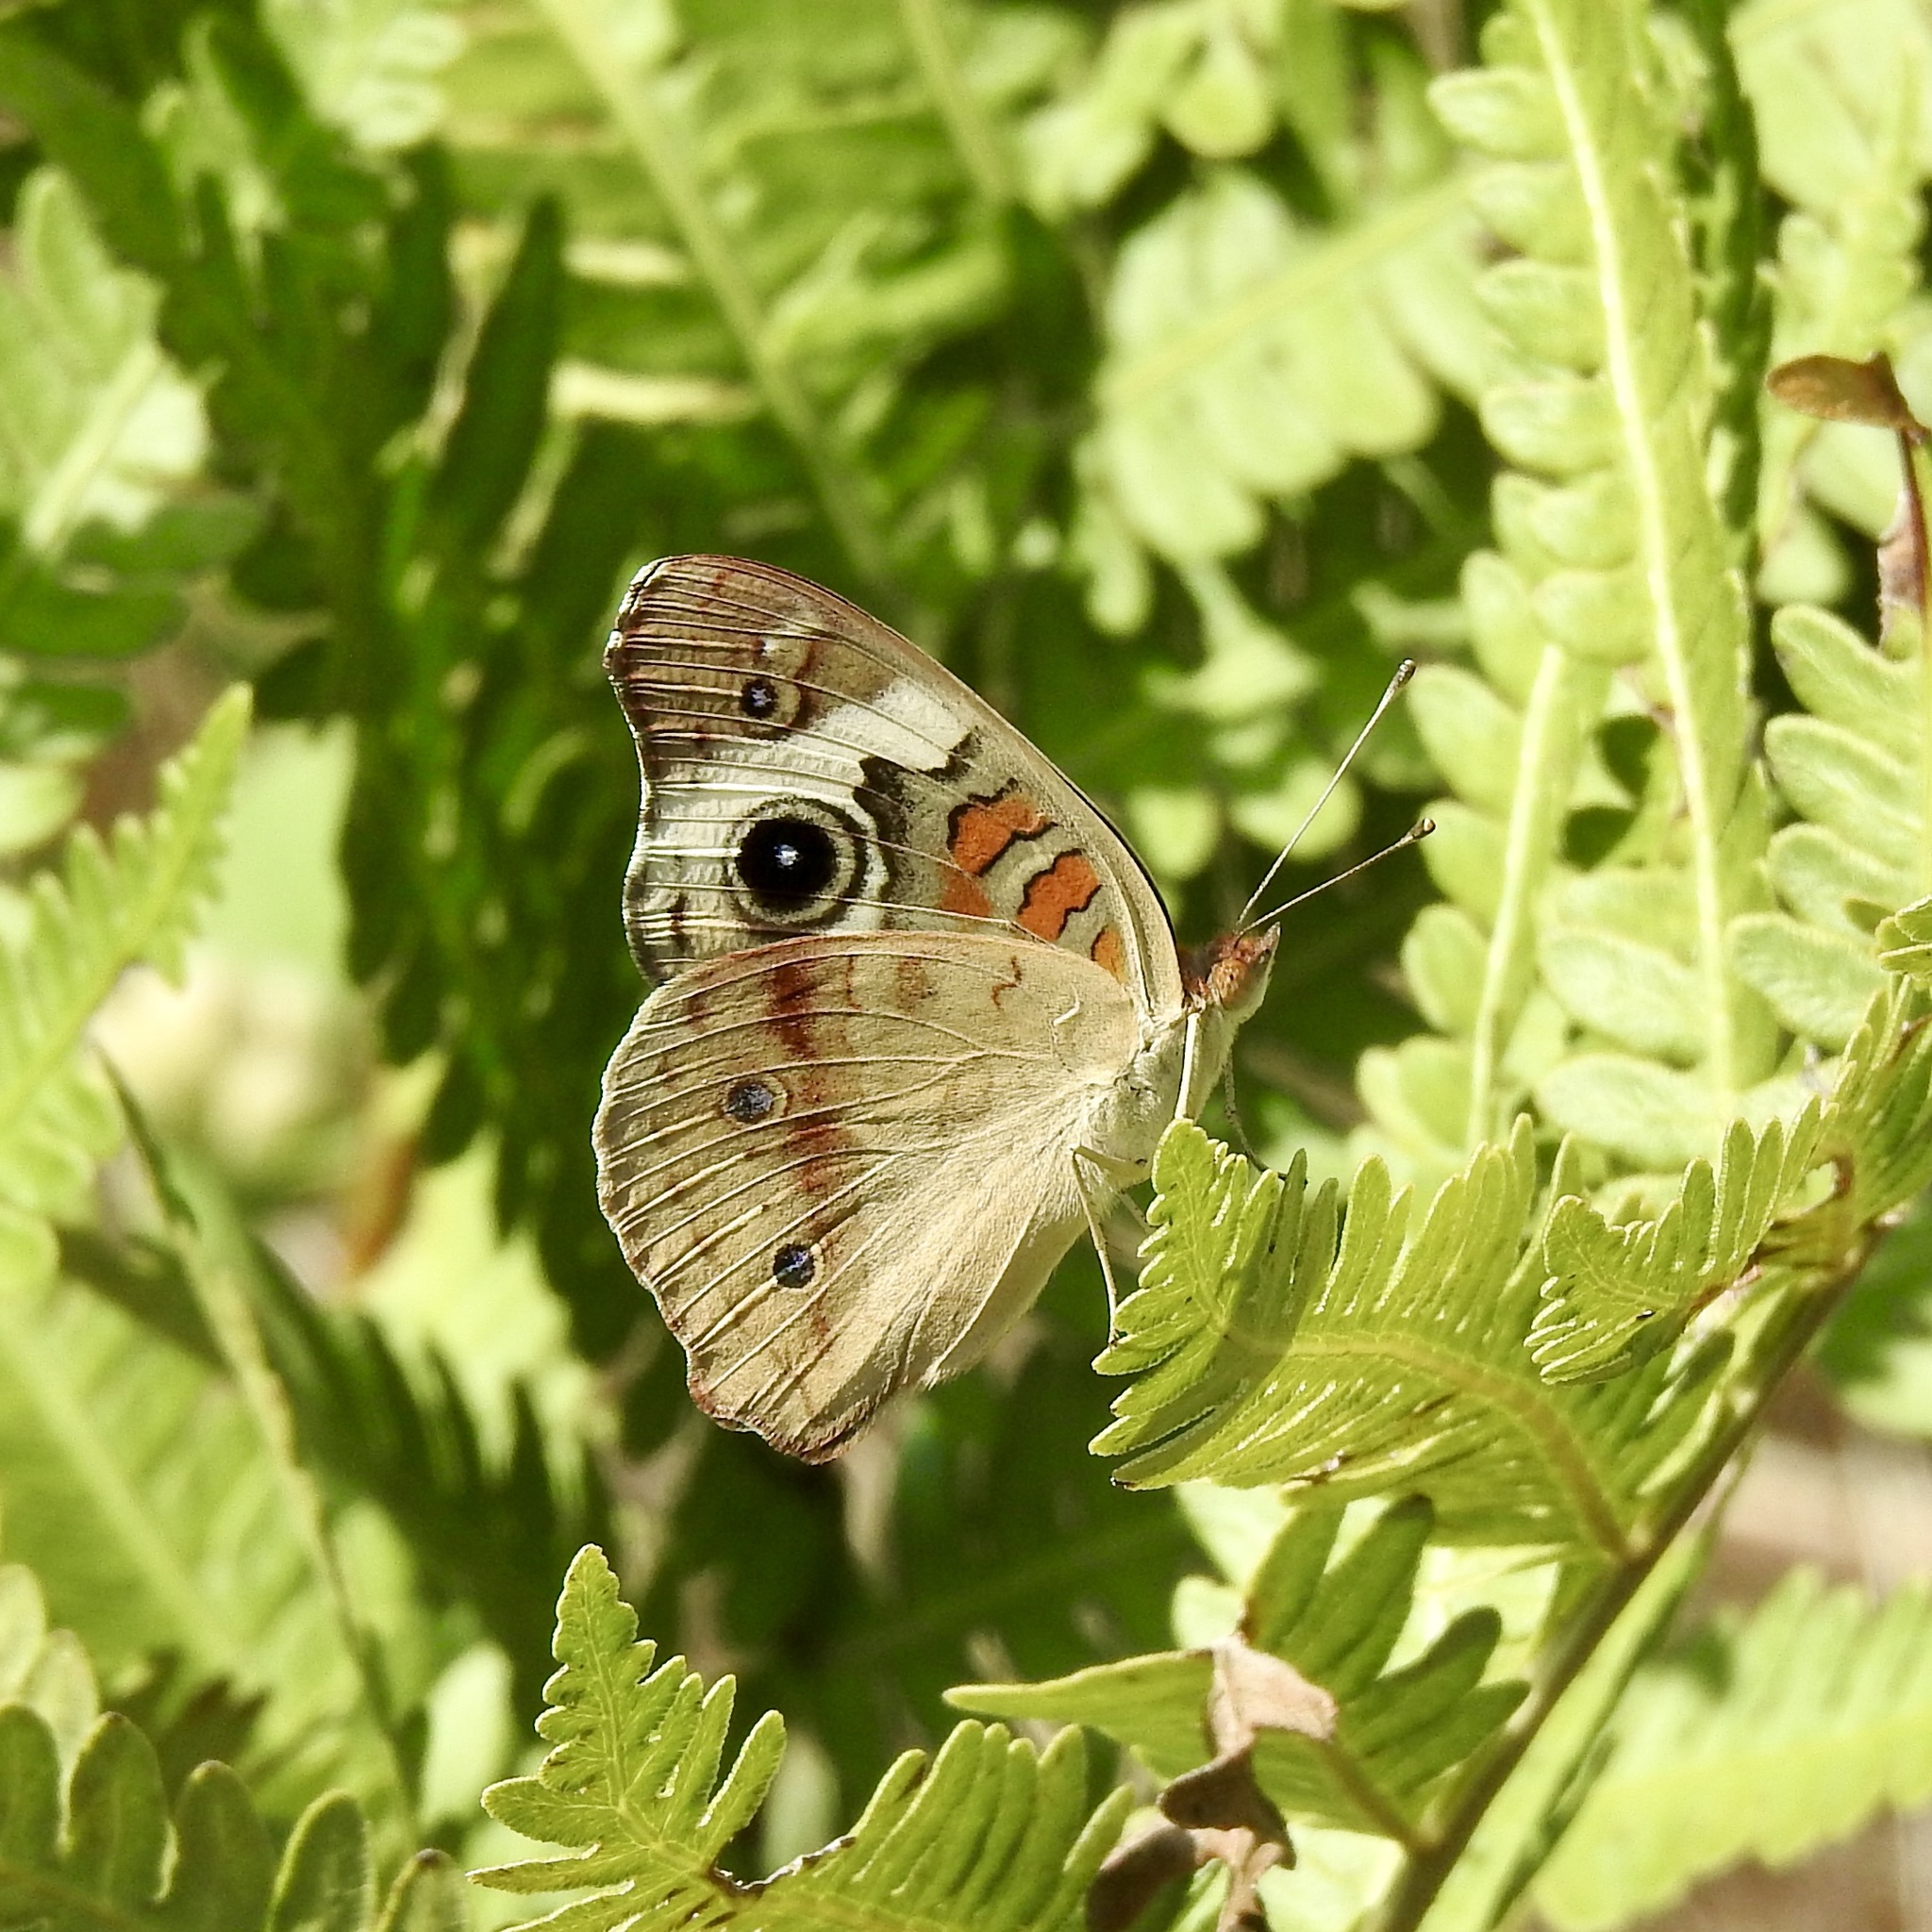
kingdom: Animalia
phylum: Arthropoda
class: Insecta
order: Lepidoptera
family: Nymphalidae
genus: Junonia
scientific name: Junonia coenia
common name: Common buckeye
